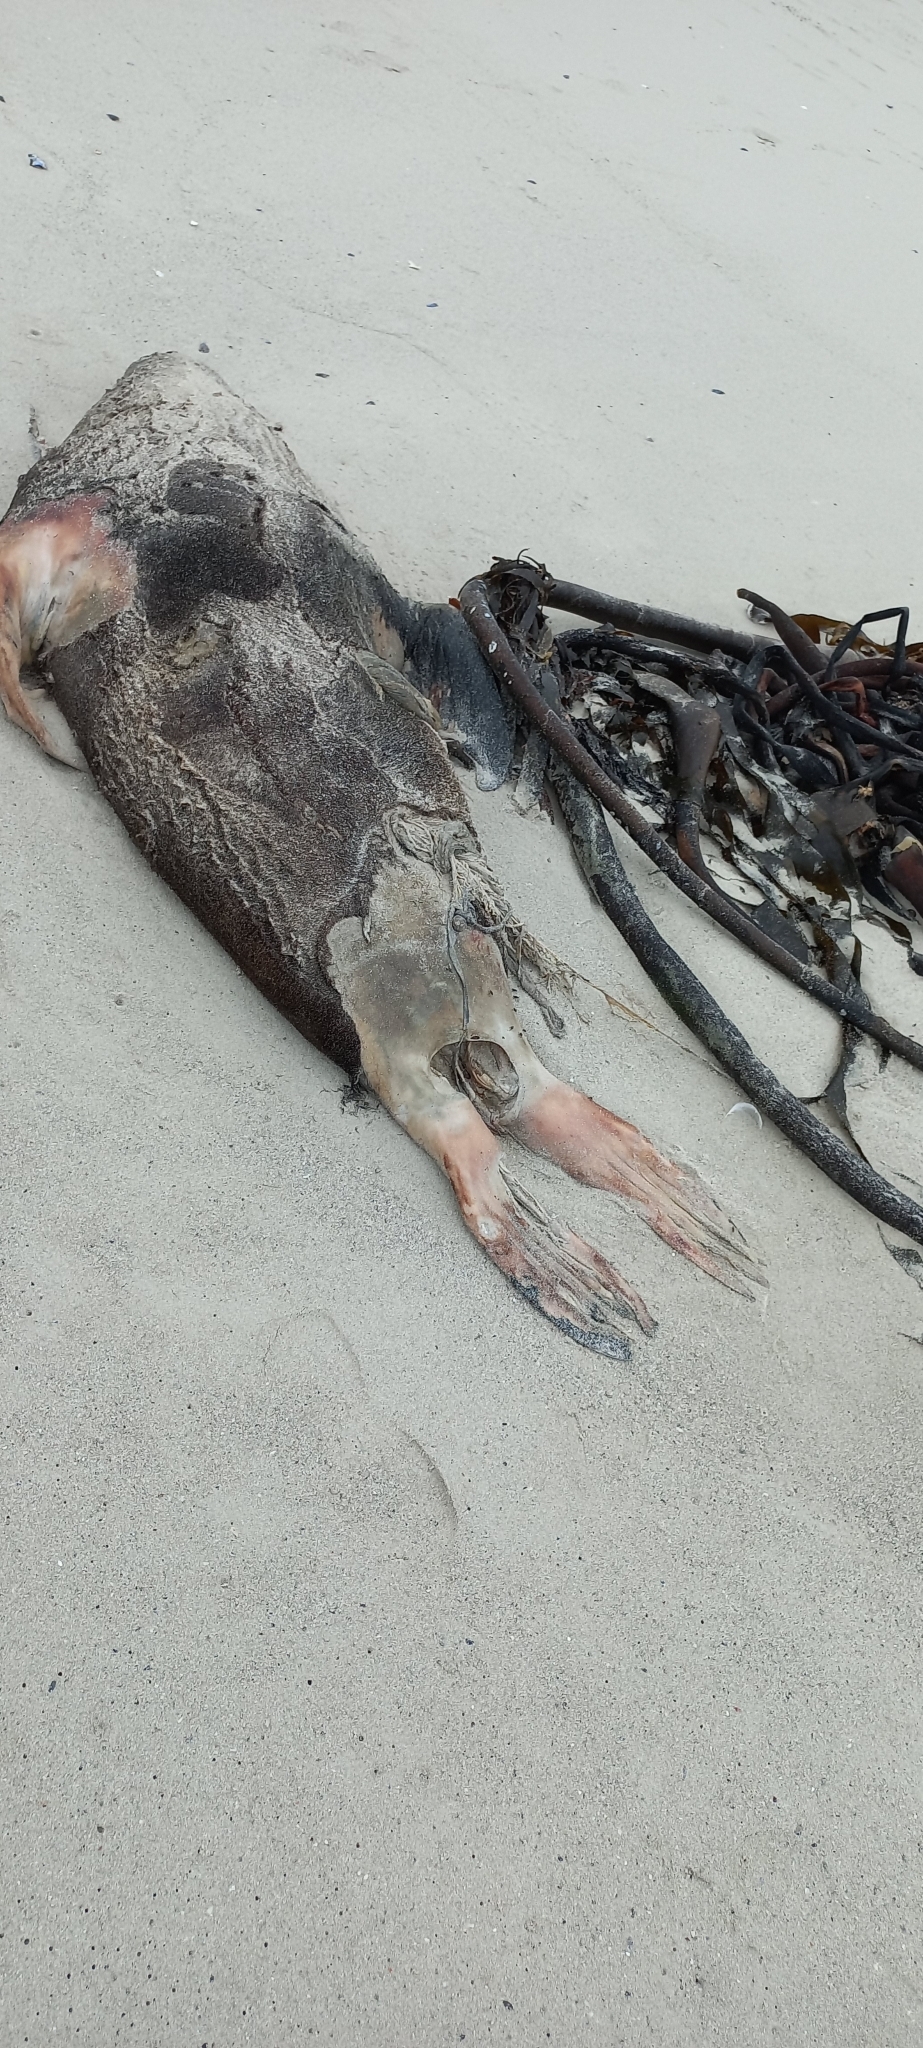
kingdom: Animalia
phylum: Chordata
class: Mammalia
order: Carnivora
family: Otariidae
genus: Arctocephalus
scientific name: Arctocephalus pusillus
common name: Brown fur seal
